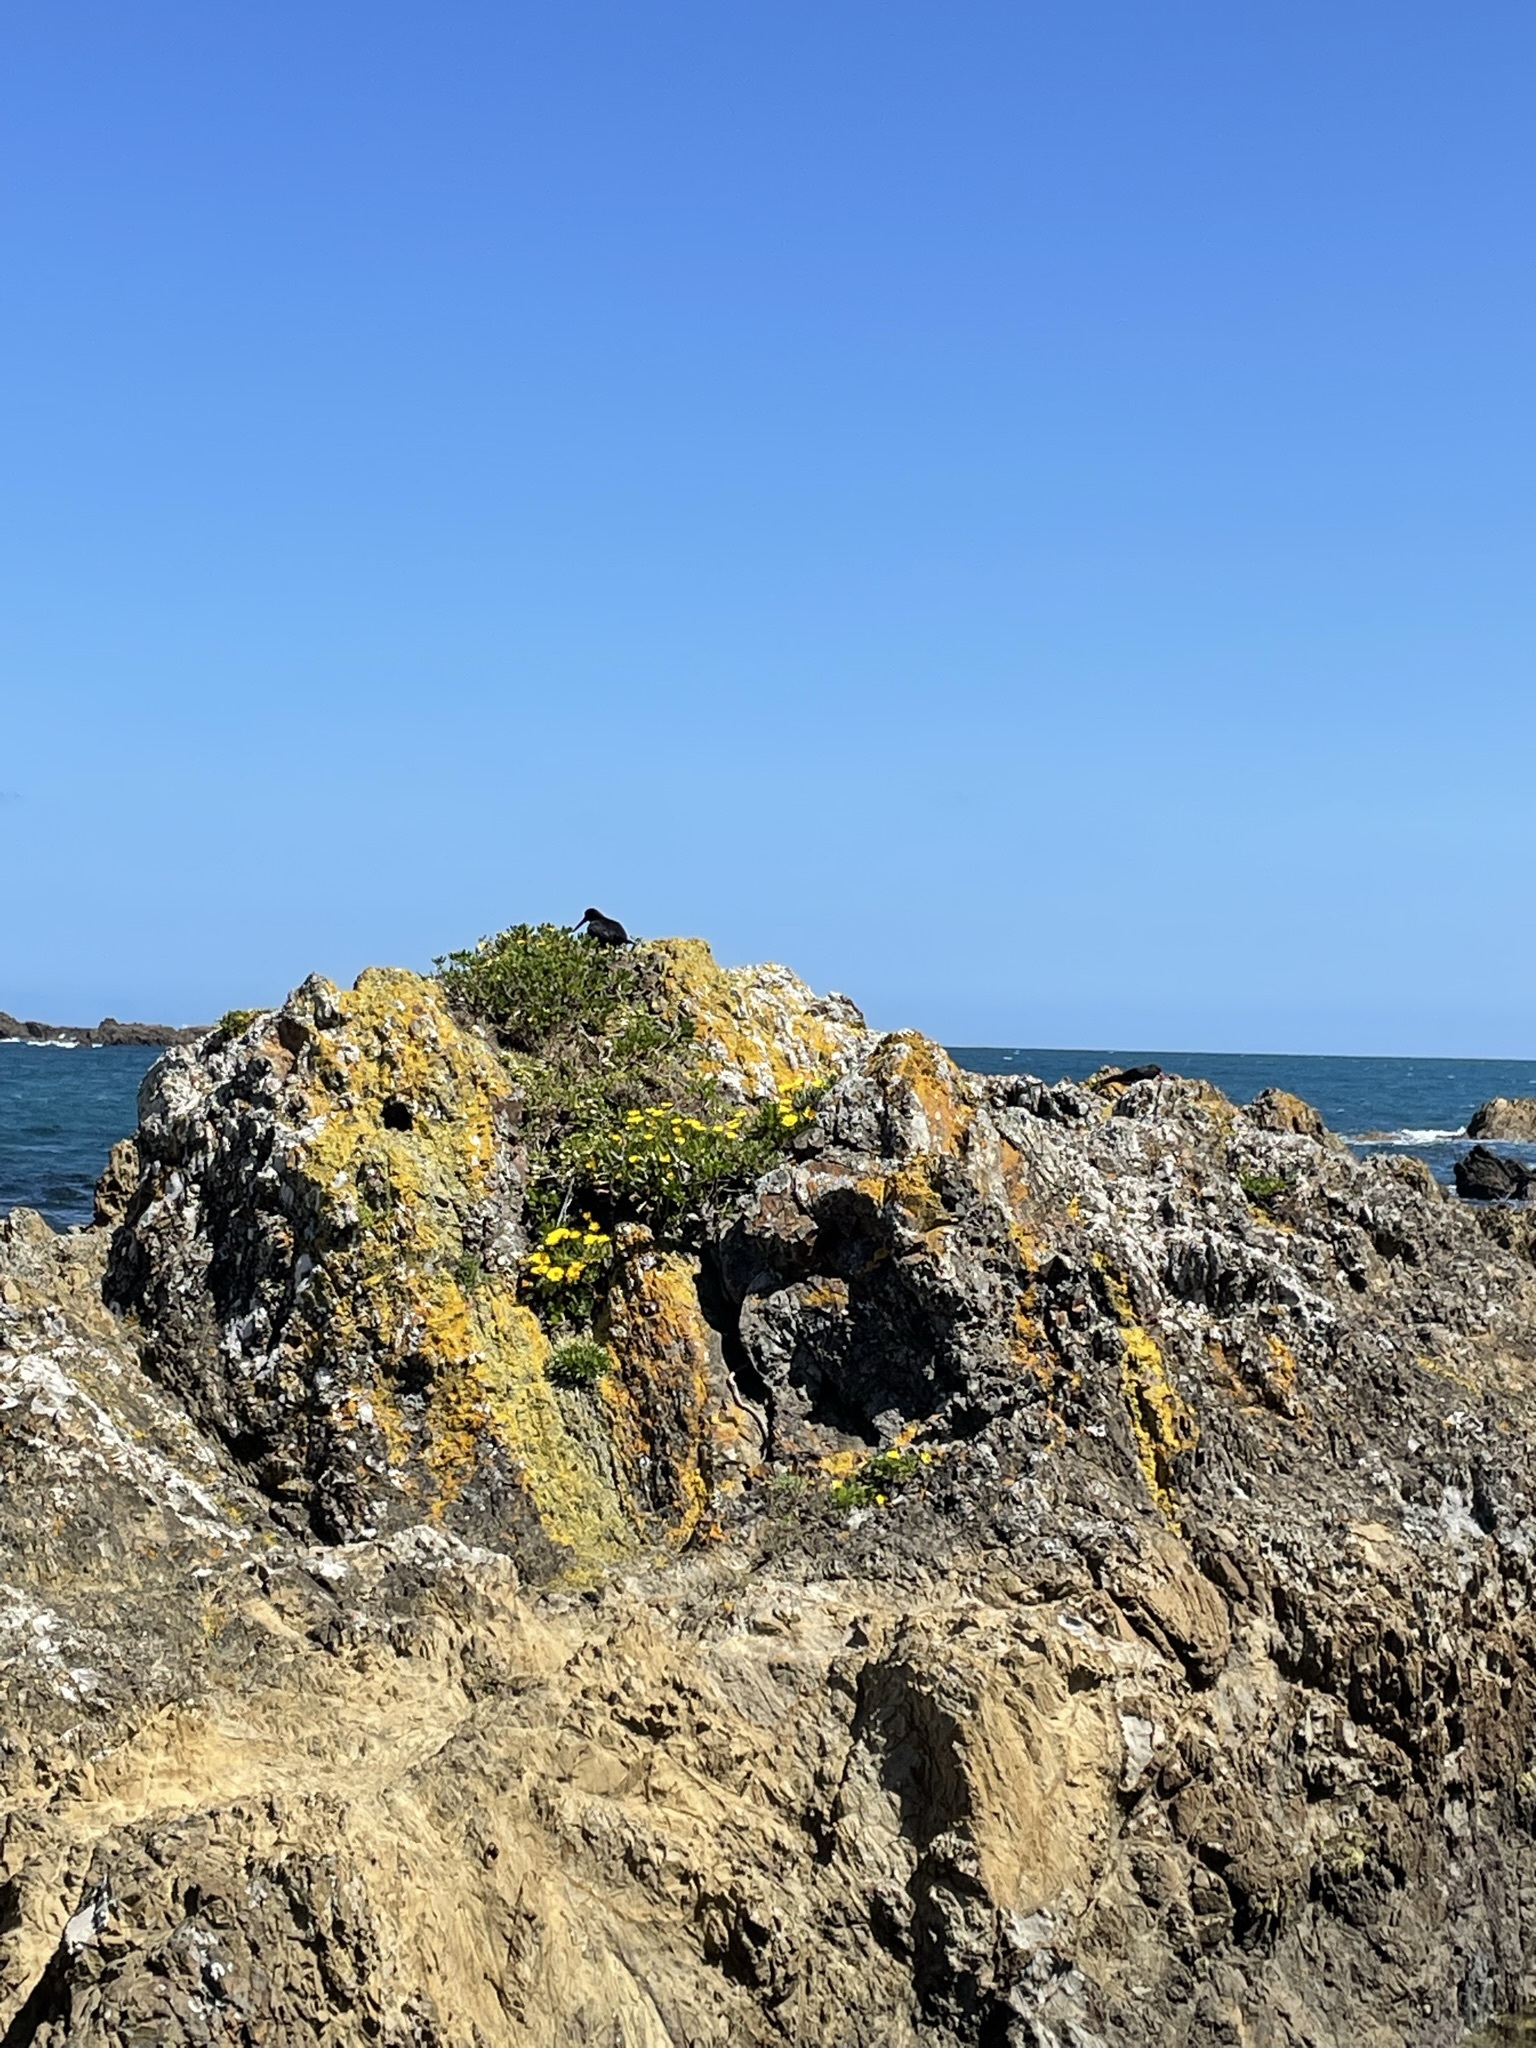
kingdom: Animalia
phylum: Chordata
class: Aves
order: Charadriiformes
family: Haematopodidae
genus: Haematopus
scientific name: Haematopus unicolor
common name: Variable oystercatcher
